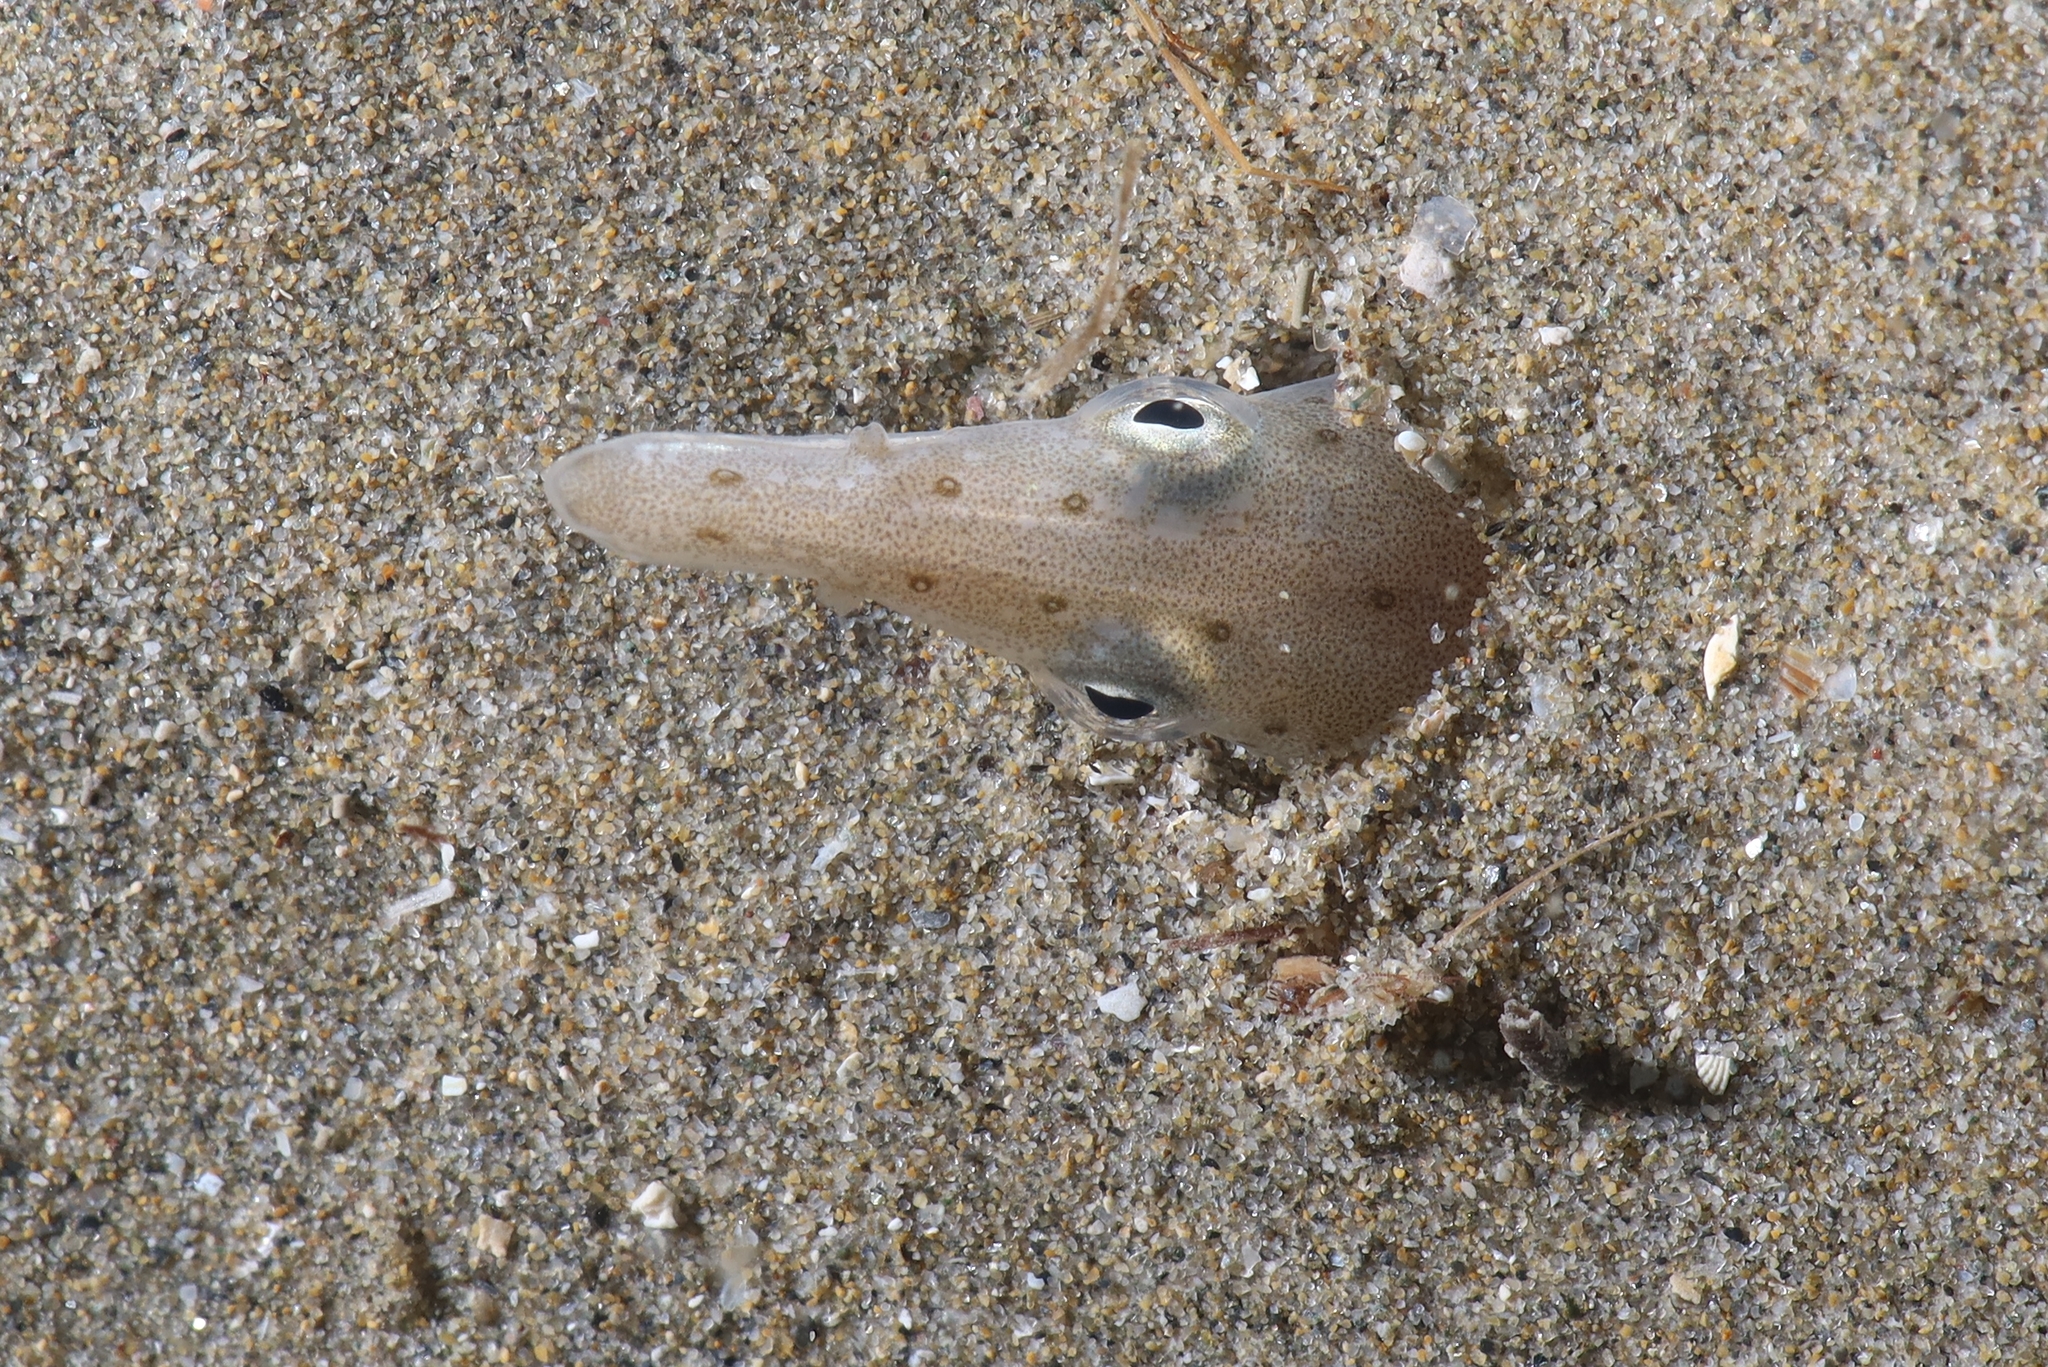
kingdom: Animalia
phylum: Chordata
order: Anguilliformes
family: Ophichthidae
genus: Ophisurus
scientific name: Ophisurus serpens
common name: Serpent eel
